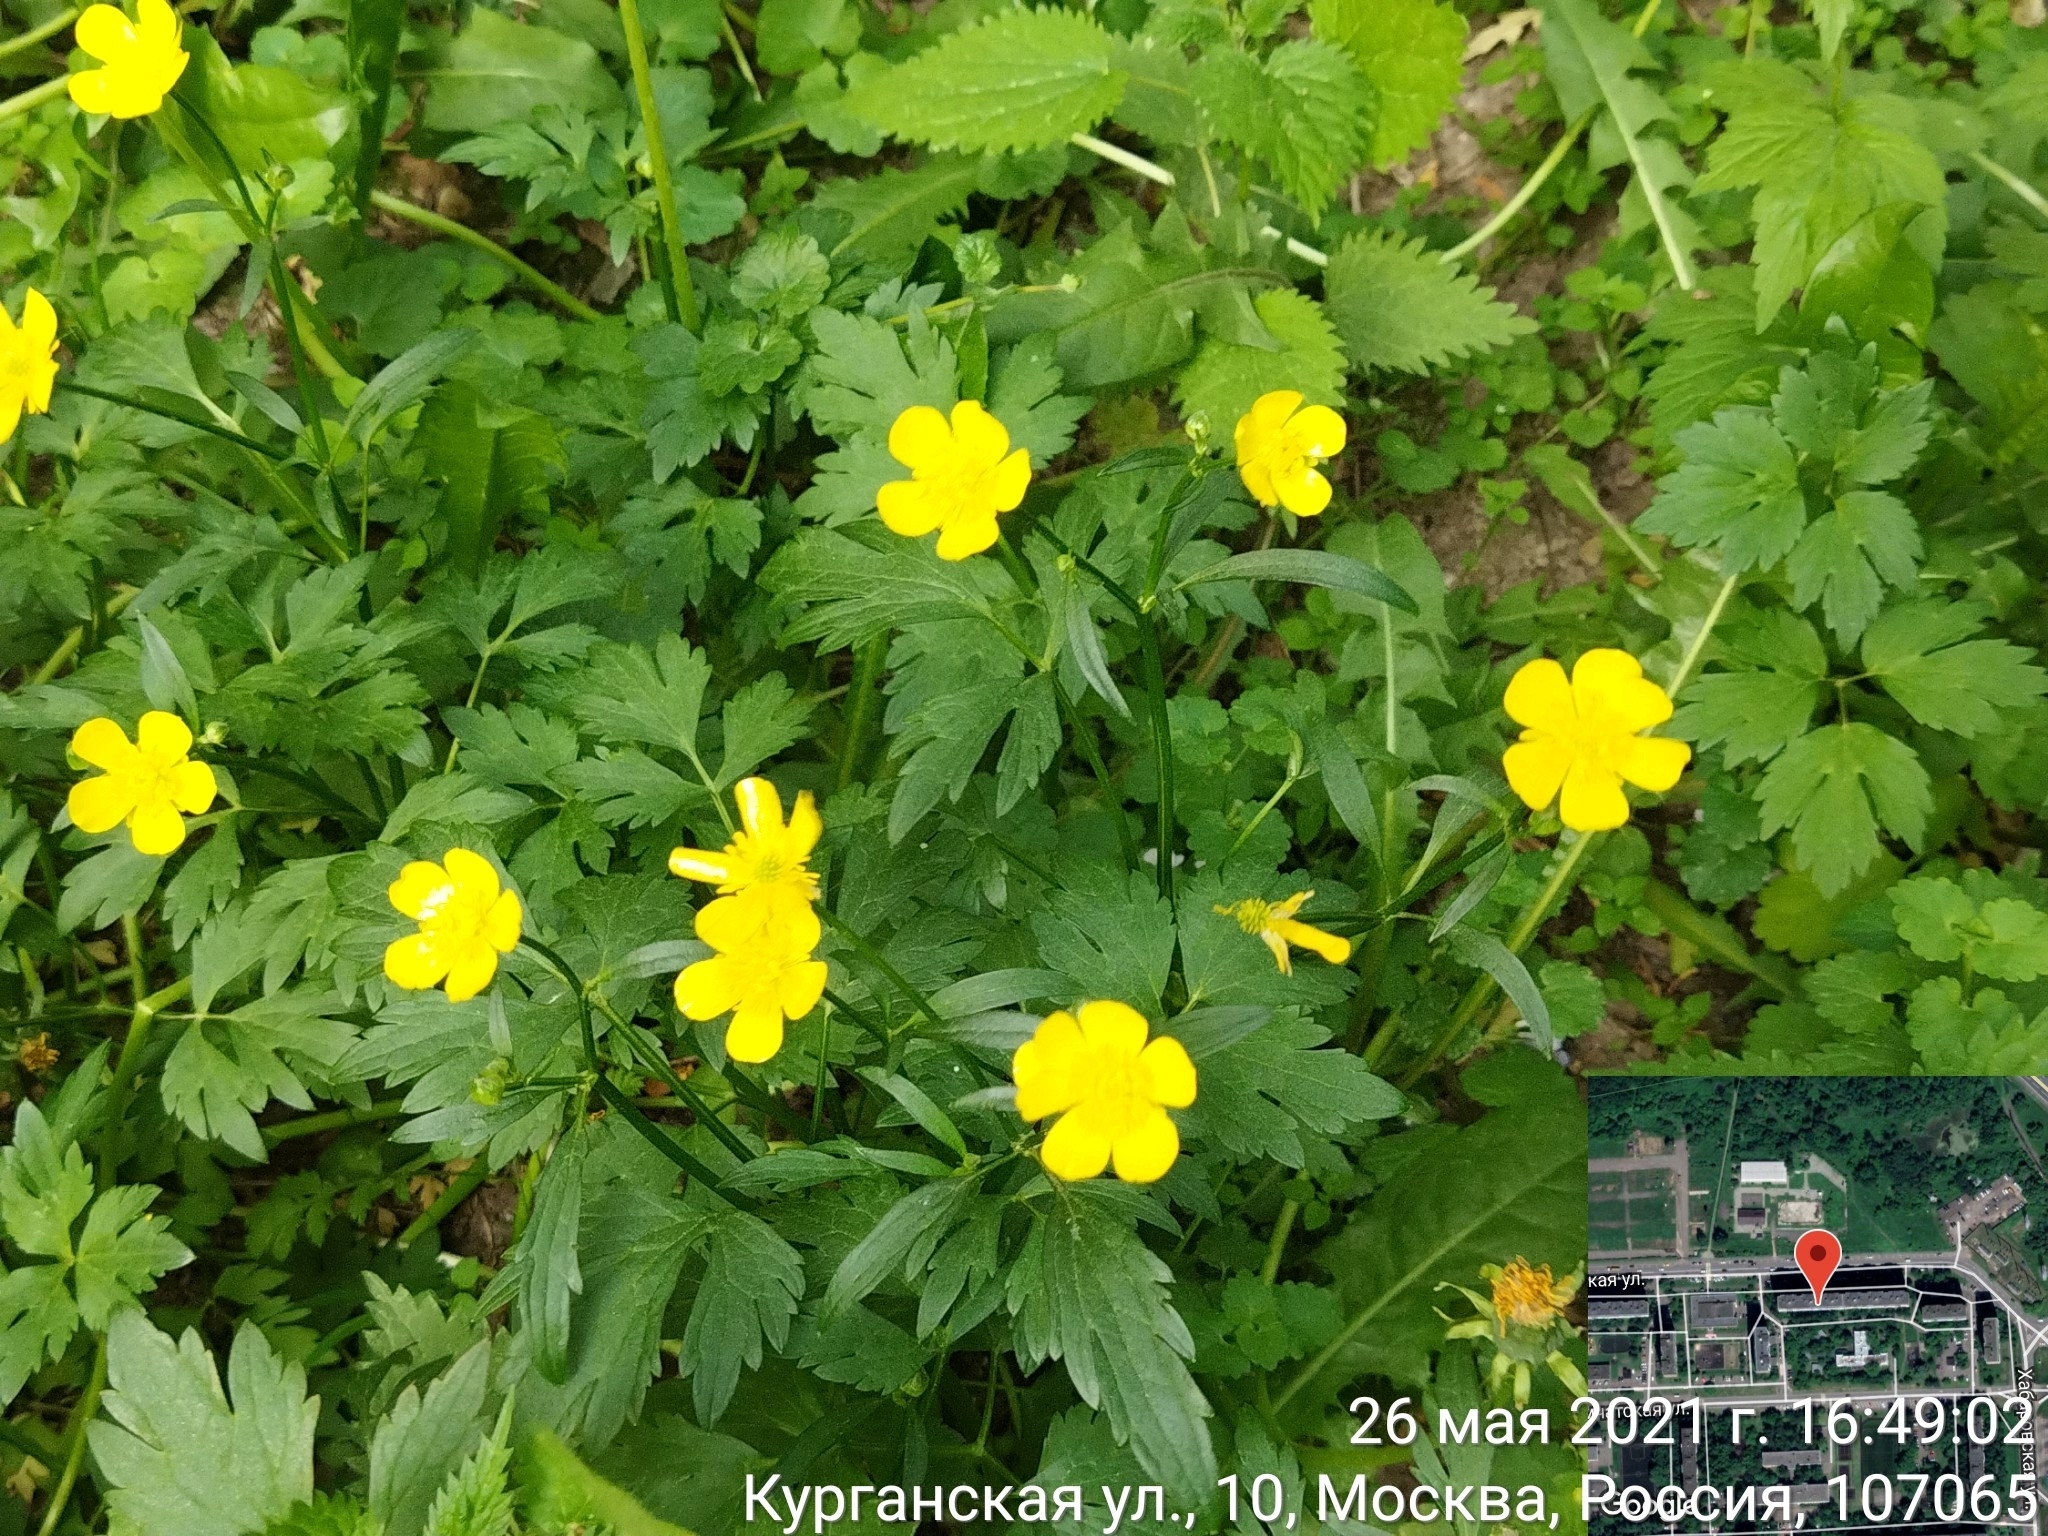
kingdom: Plantae
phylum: Tracheophyta
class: Magnoliopsida
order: Ranunculales
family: Ranunculaceae
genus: Ranunculus
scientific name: Ranunculus repens
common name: Creeping buttercup
